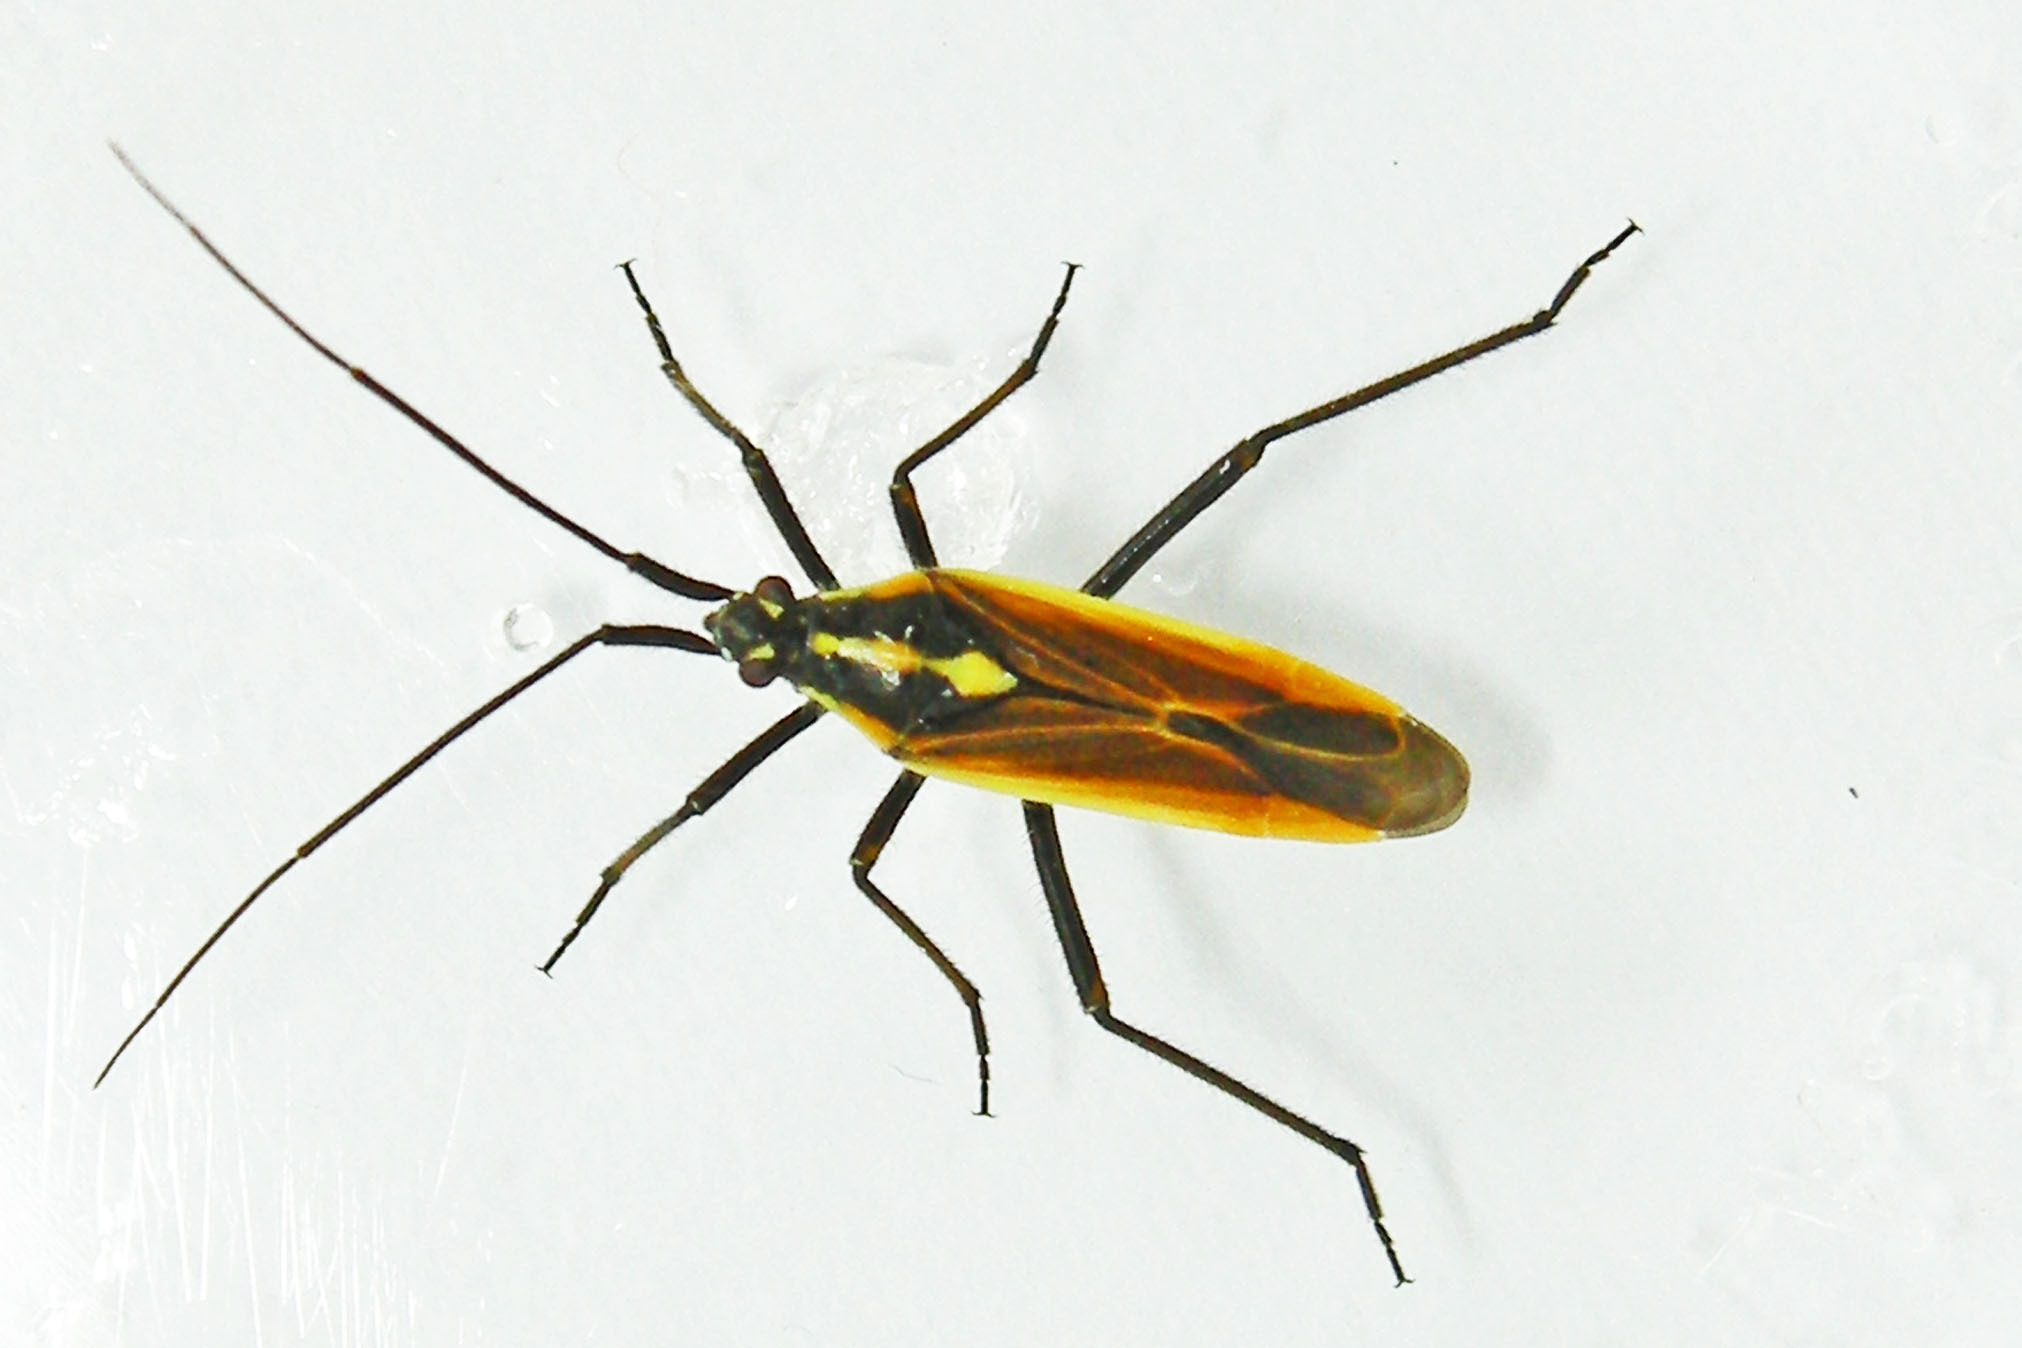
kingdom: Animalia
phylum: Arthropoda
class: Insecta
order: Hemiptera
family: Miridae
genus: Leptopterna
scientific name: Leptopterna dolabrata
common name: Meadow plant bug
